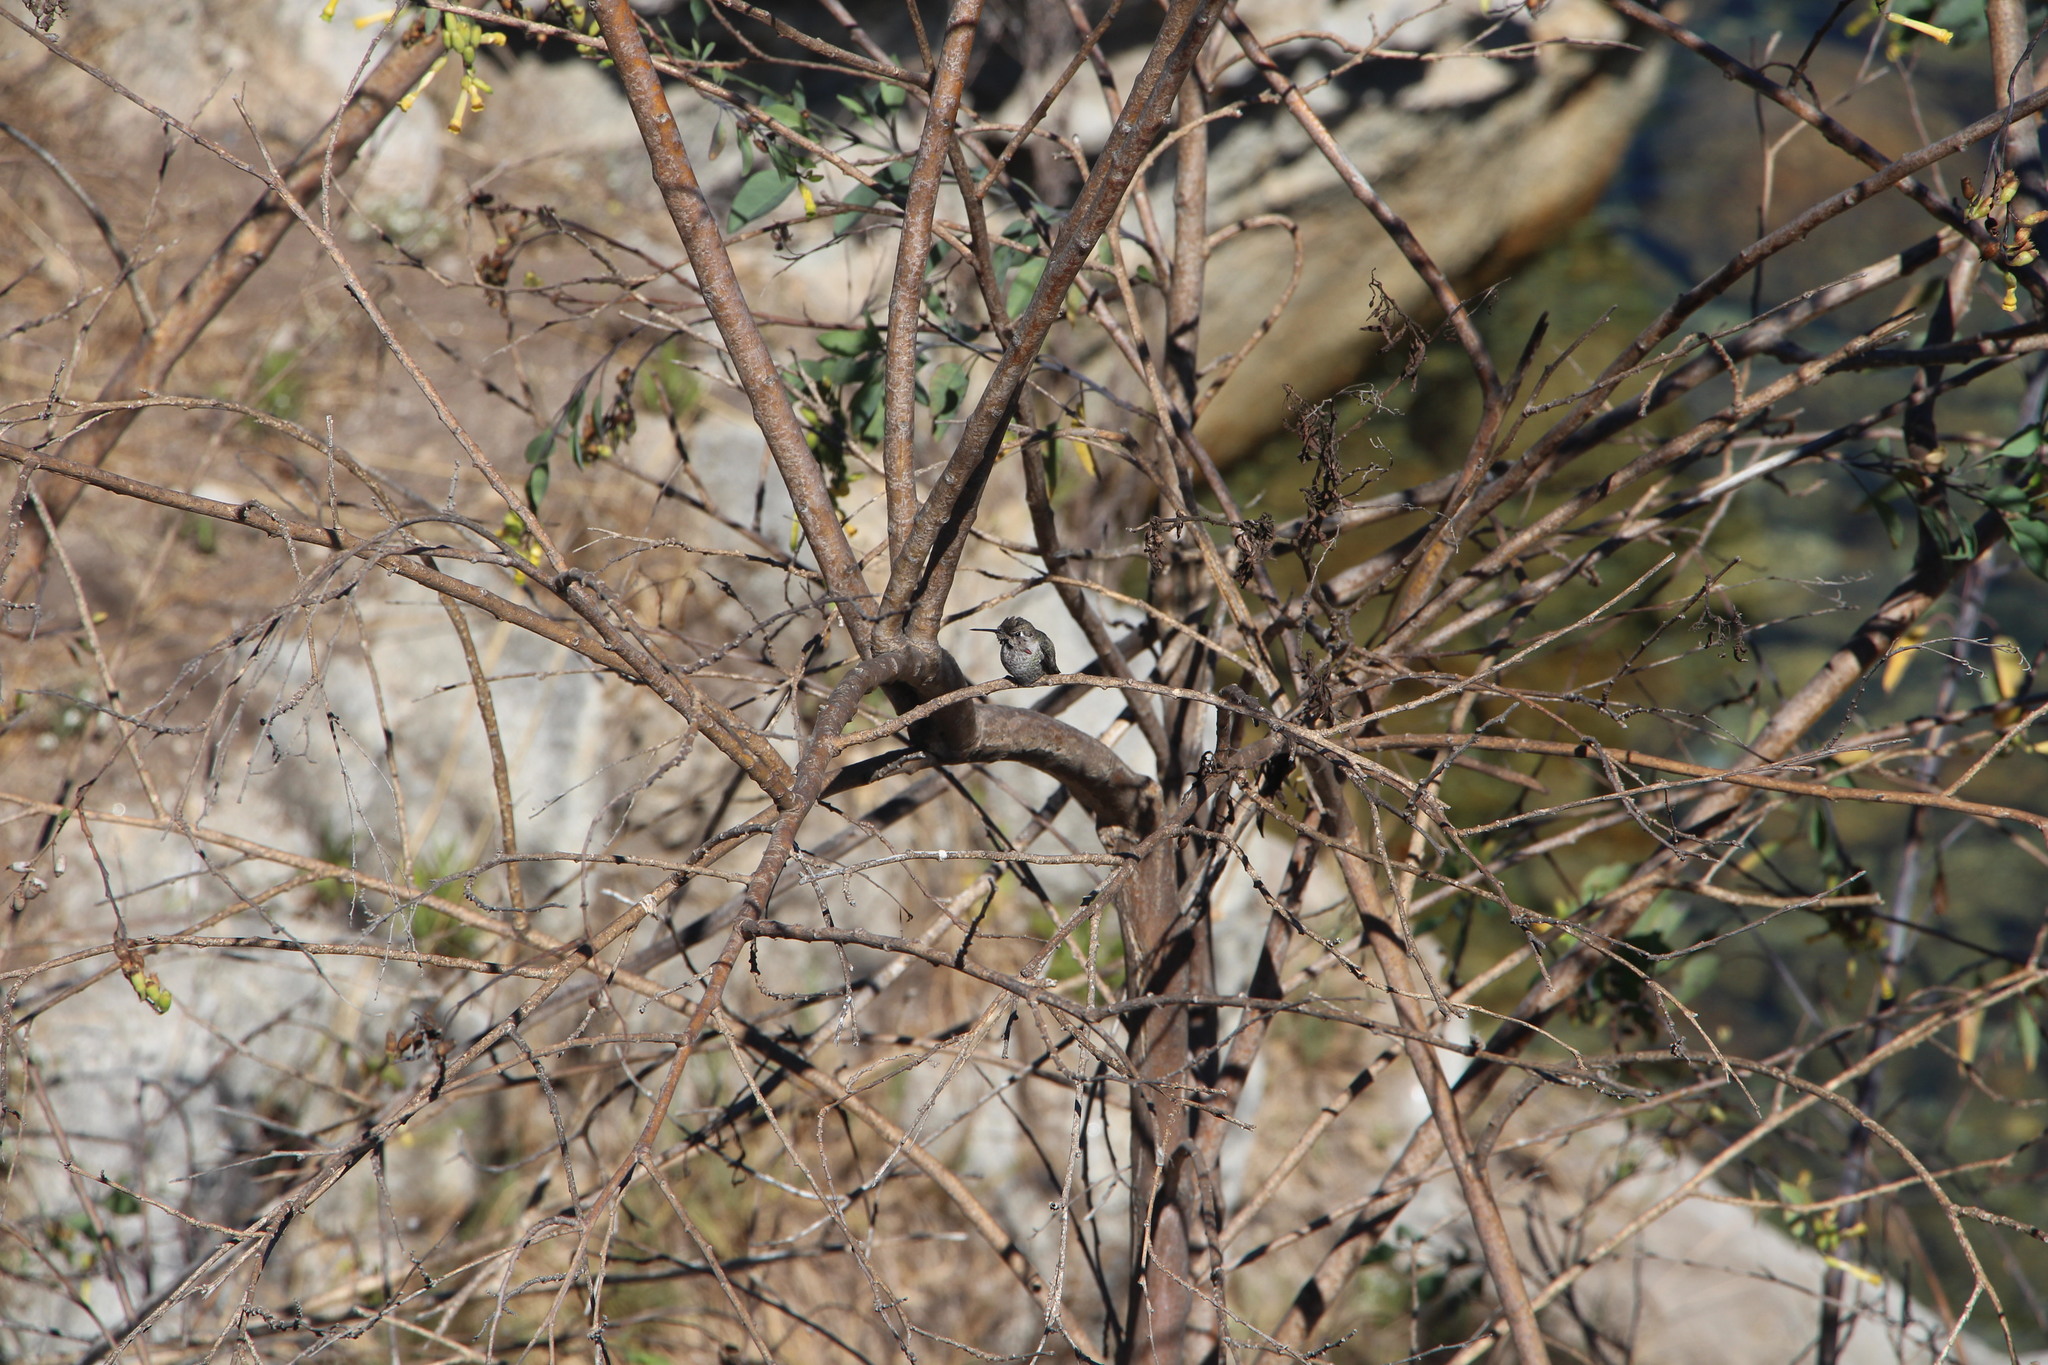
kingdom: Animalia
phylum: Chordata
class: Aves
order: Apodiformes
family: Trochilidae
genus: Calypte
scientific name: Calypte anna
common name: Anna's hummingbird
